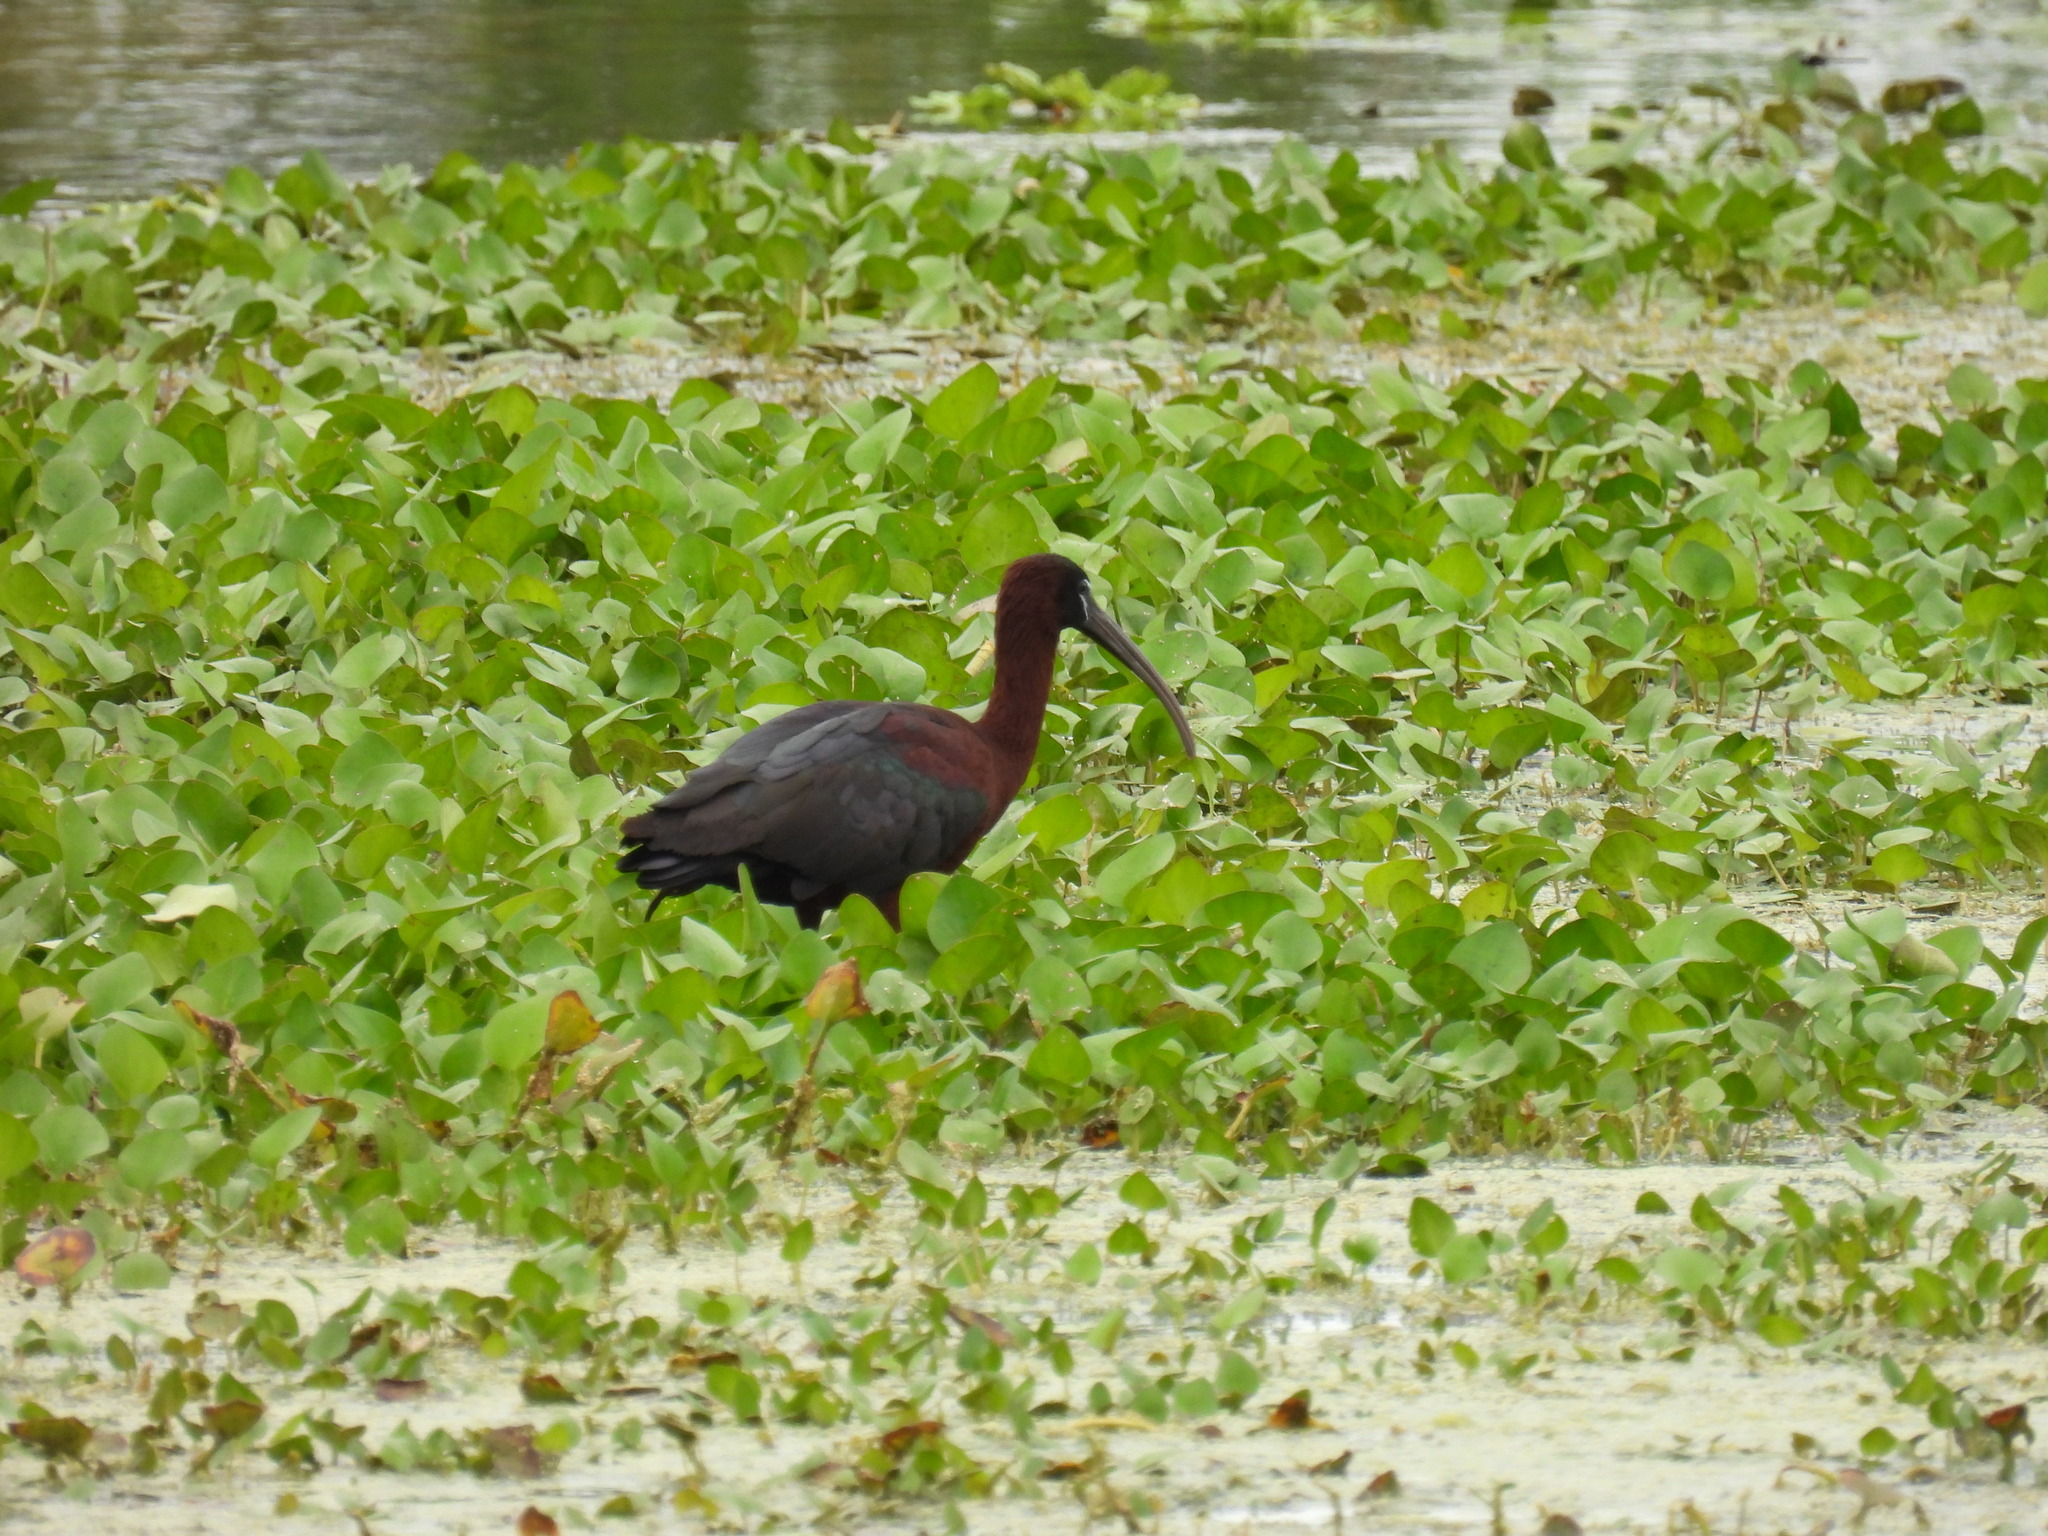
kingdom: Animalia
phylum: Chordata
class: Aves
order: Pelecaniformes
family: Threskiornithidae
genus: Plegadis
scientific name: Plegadis falcinellus
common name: Glossy ibis
